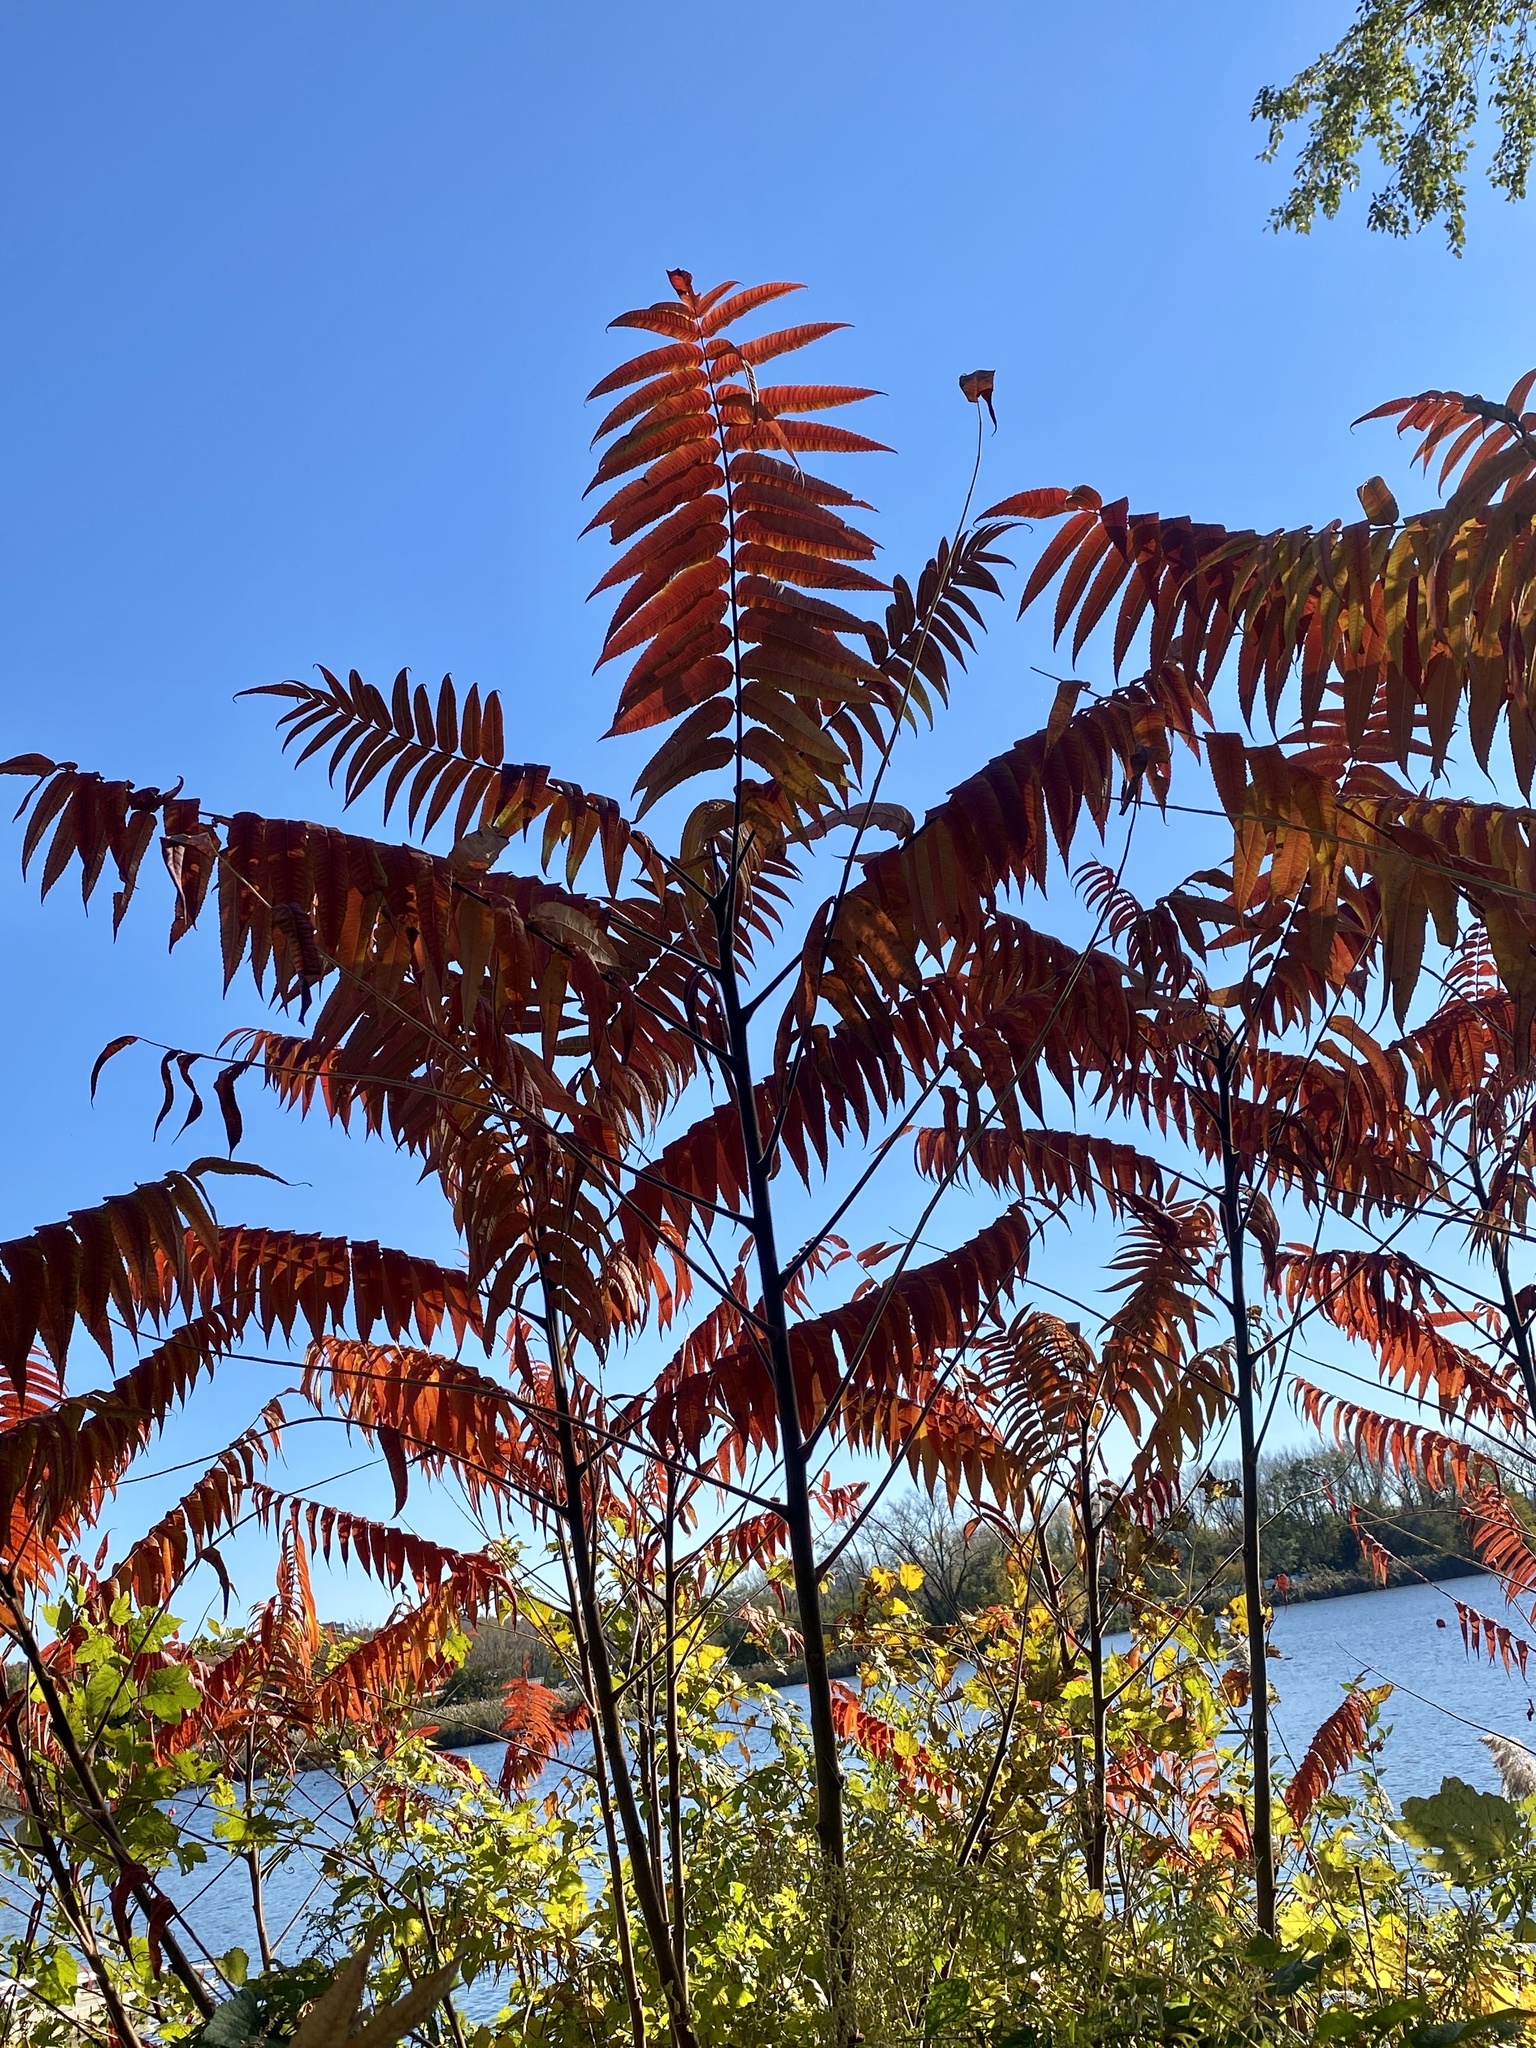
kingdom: Plantae
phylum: Tracheophyta
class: Magnoliopsida
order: Sapindales
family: Anacardiaceae
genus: Rhus
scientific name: Rhus typhina
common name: Staghorn sumac
